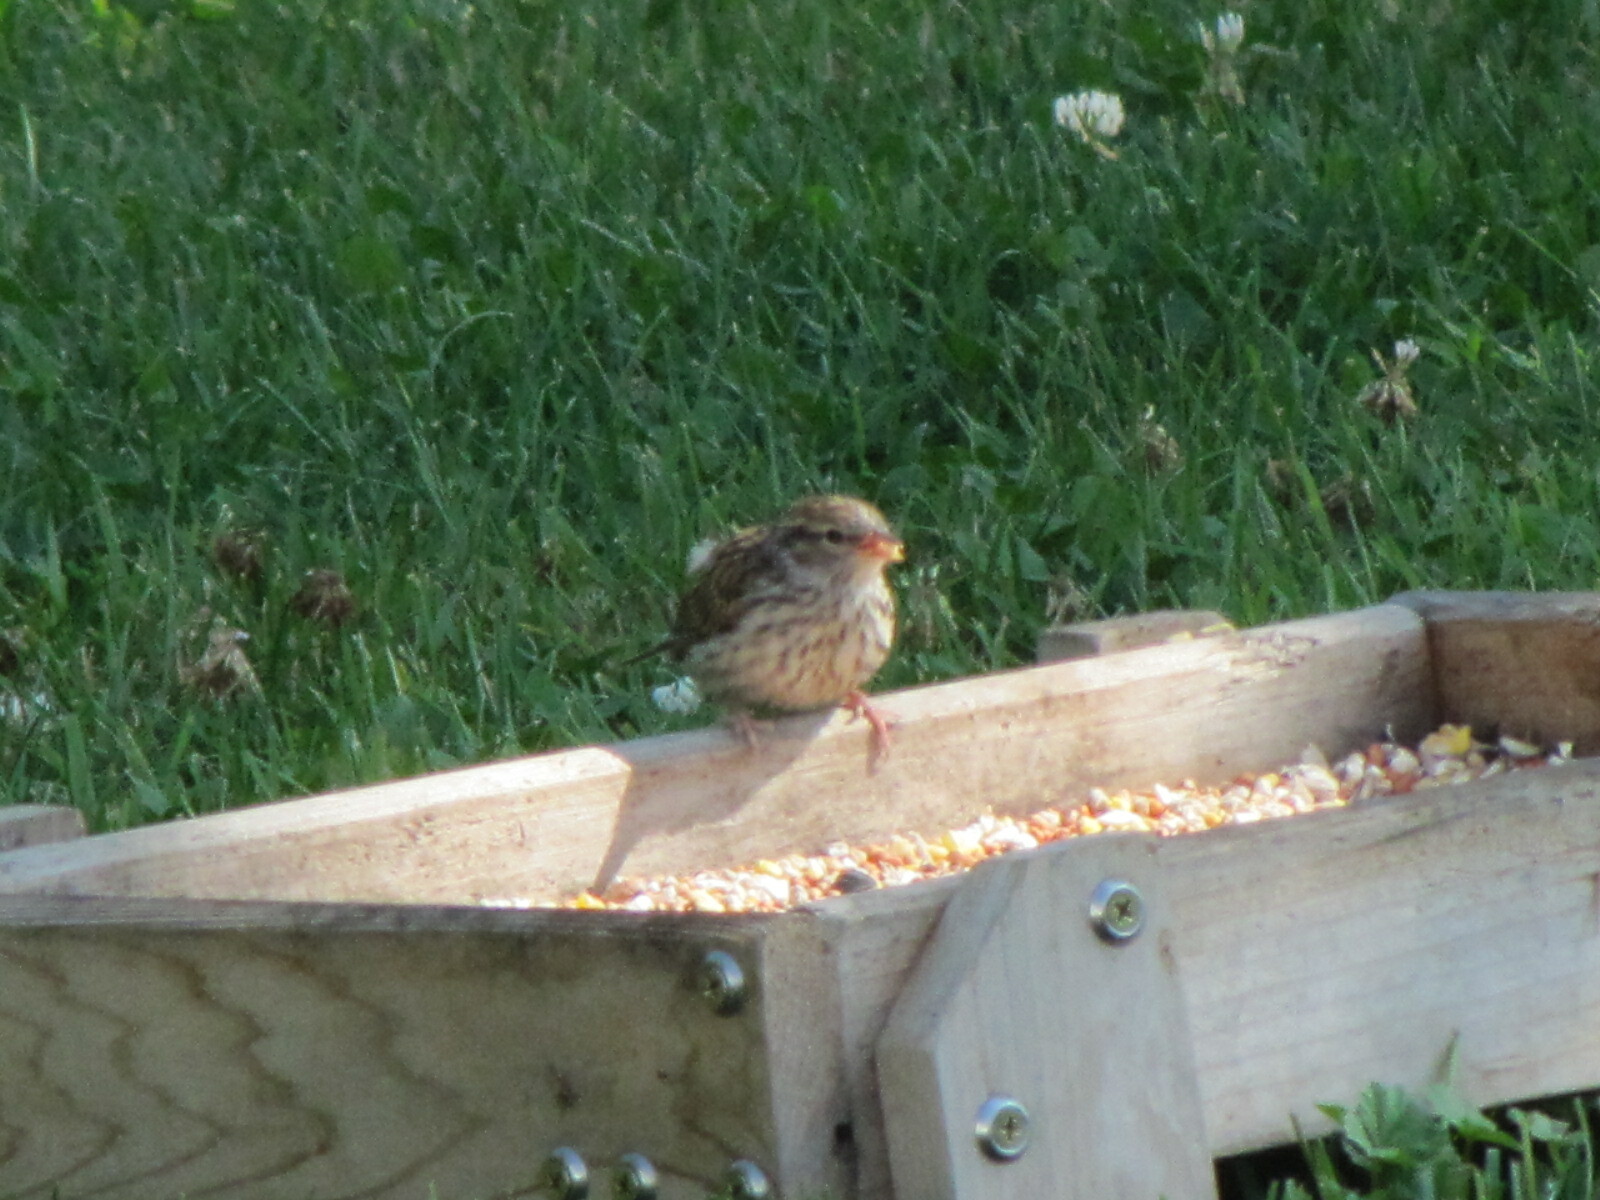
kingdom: Animalia
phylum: Chordata
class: Aves
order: Passeriformes
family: Passerellidae
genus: Spizella
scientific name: Spizella passerina
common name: Chipping sparrow
